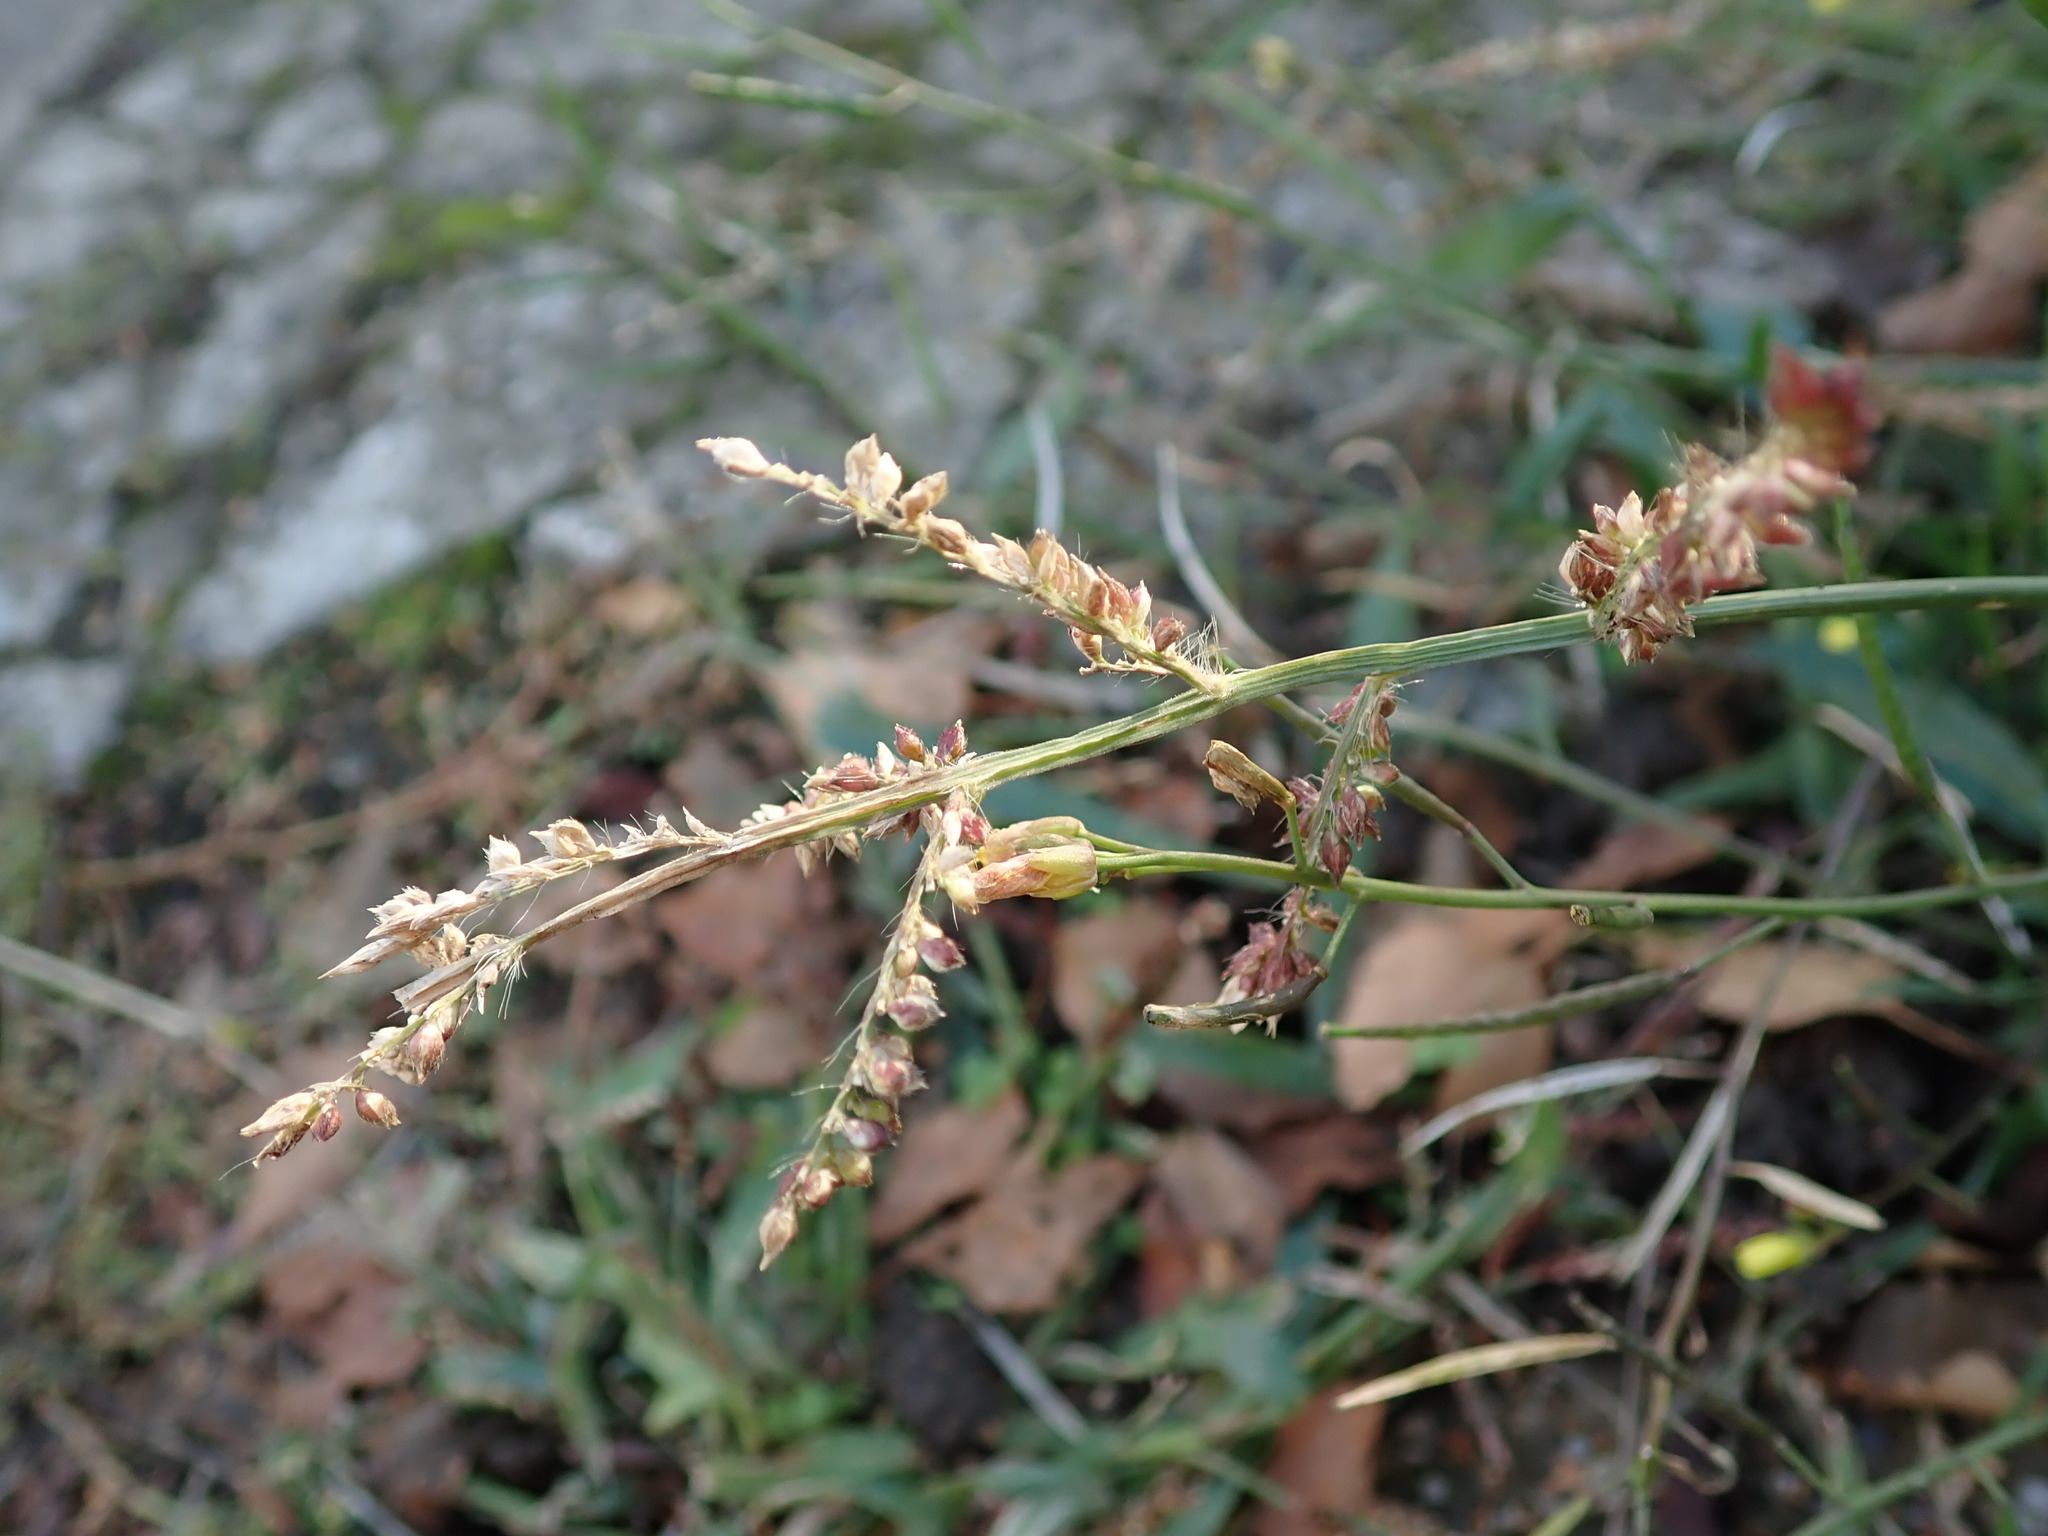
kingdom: Plantae
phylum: Tracheophyta
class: Liliopsida
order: Poales
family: Poaceae
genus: Echinochloa
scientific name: Echinochloa crus-galli
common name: Cockspur
